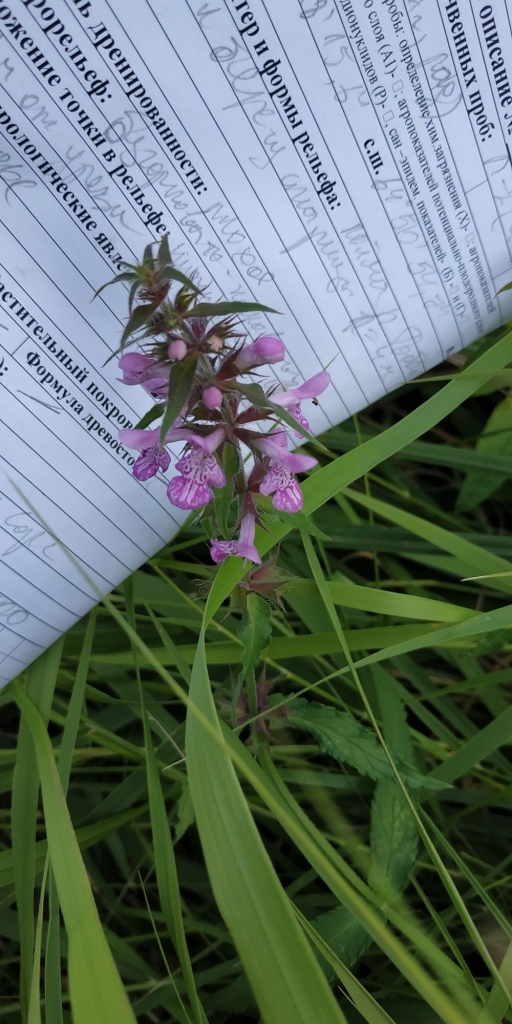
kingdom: Plantae
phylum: Tracheophyta
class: Magnoliopsida
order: Lamiales
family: Lamiaceae
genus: Stachys
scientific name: Stachys palustris
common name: Marsh woundwort
